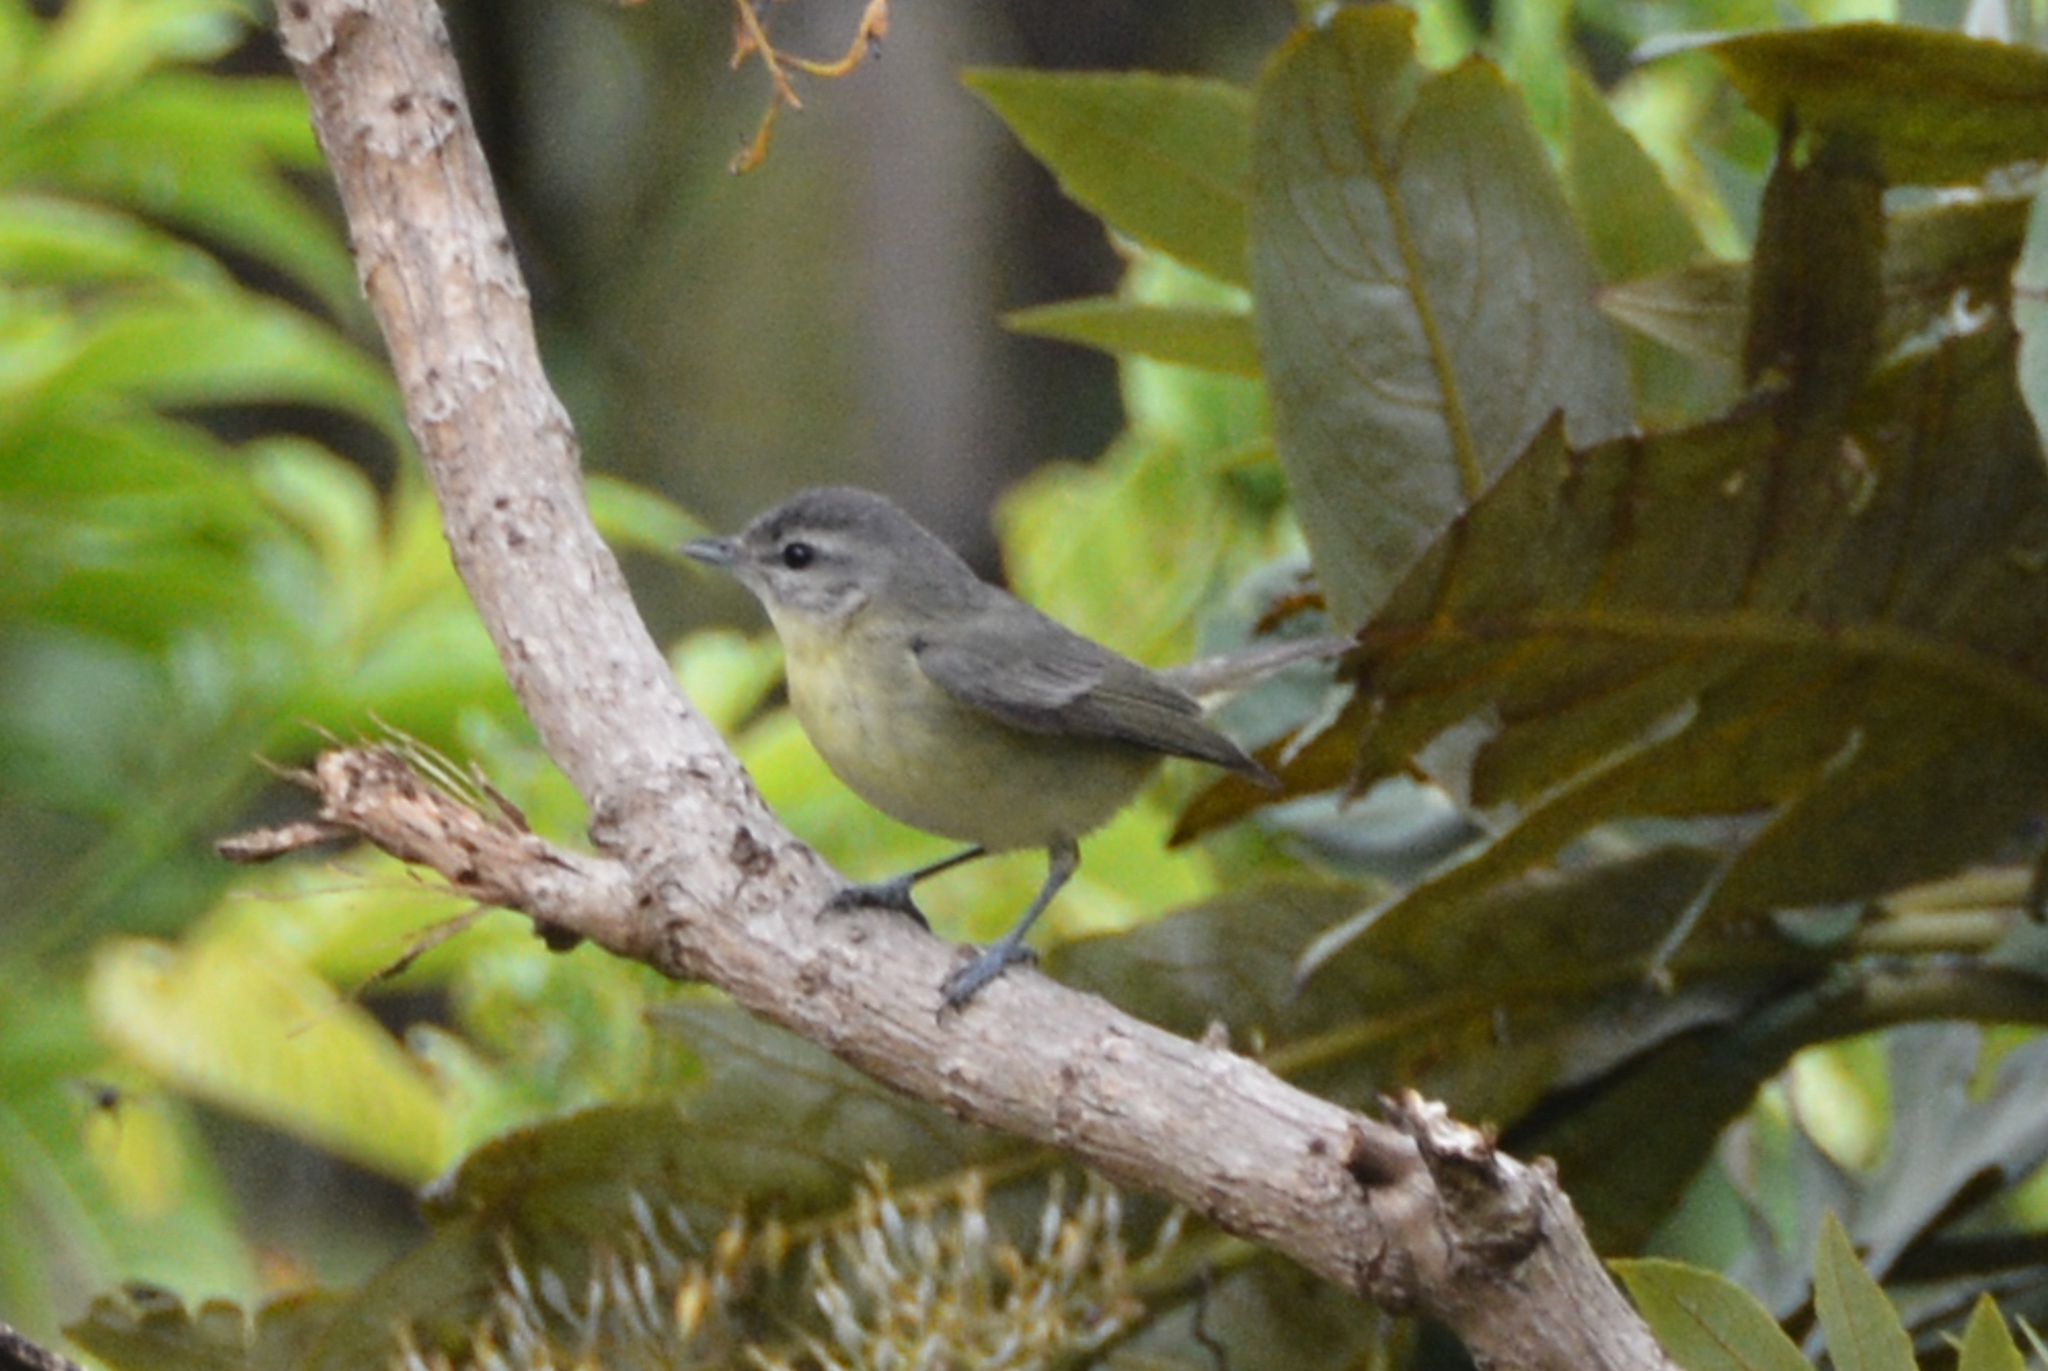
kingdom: Animalia
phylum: Chordata
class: Aves
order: Passeriformes
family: Vireonidae
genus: Vireo
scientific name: Vireo philadelphicus
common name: Philadelphia vireo
